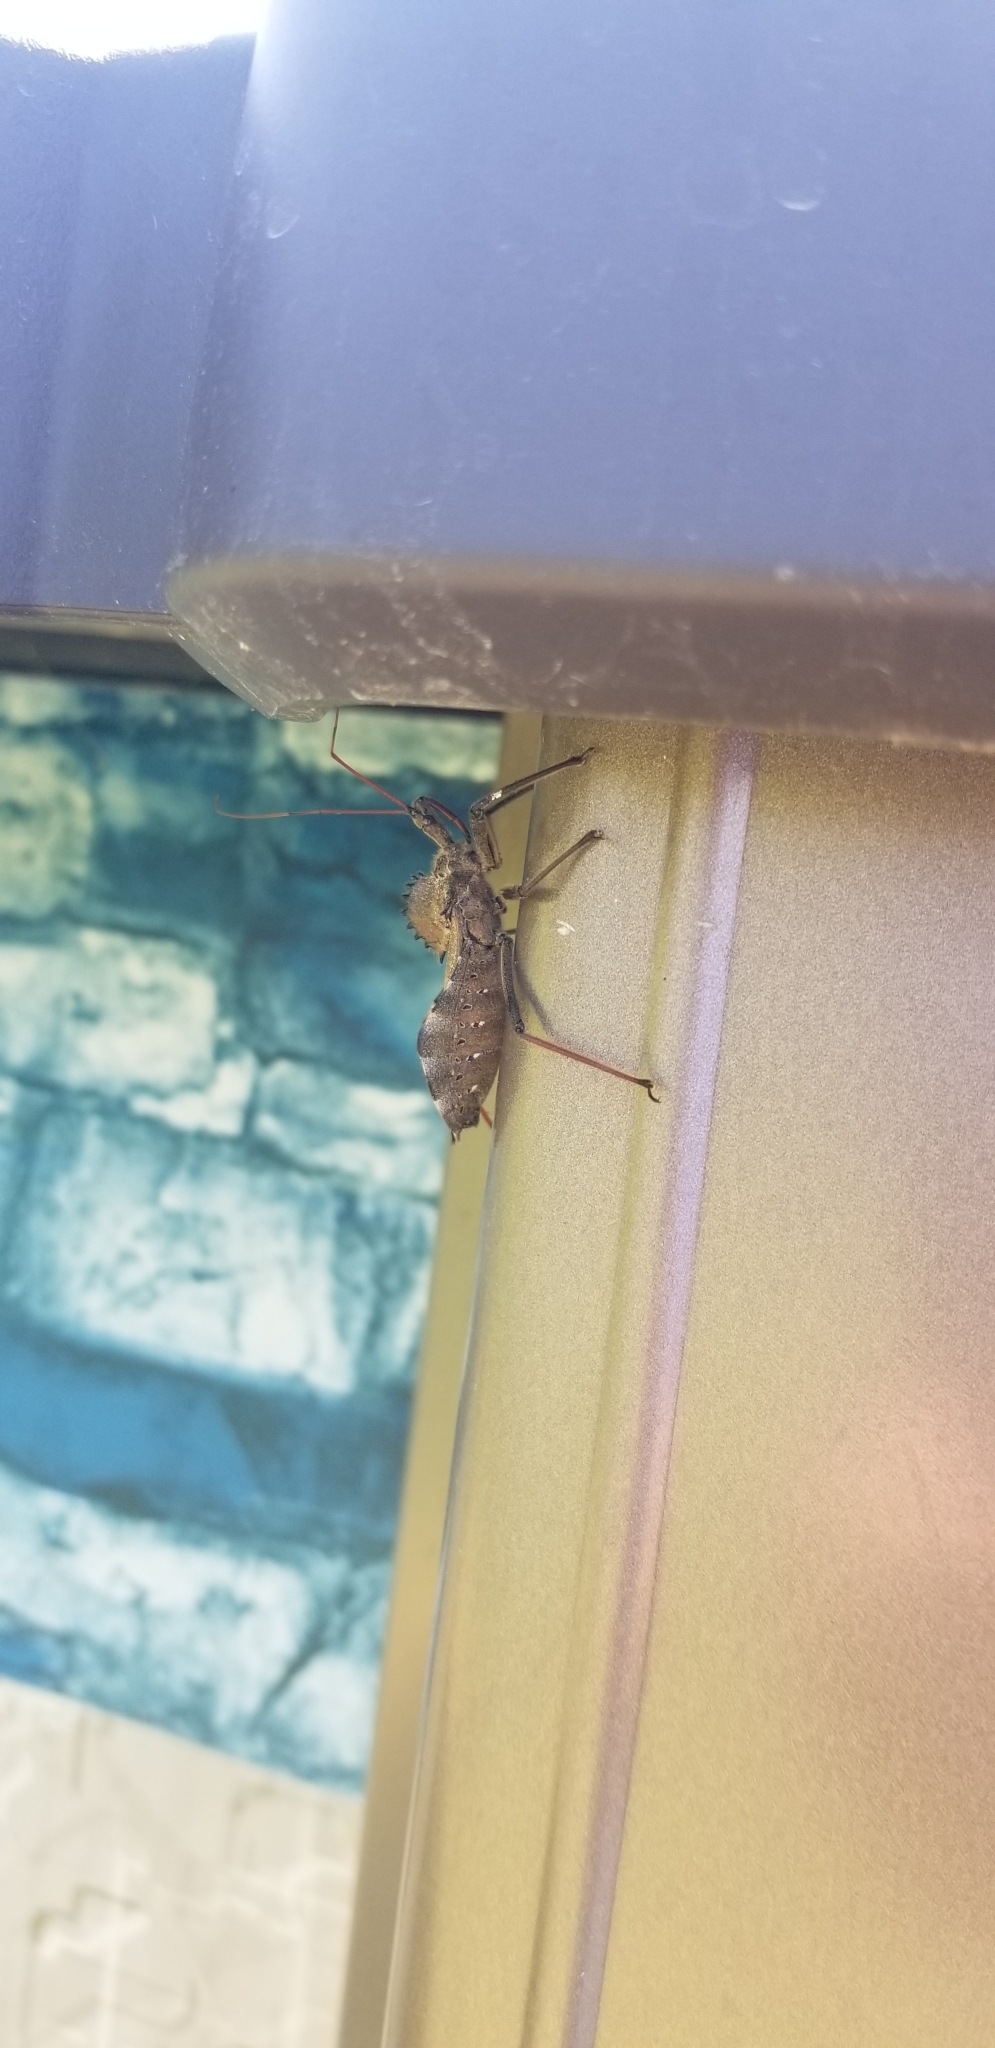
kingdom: Animalia
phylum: Arthropoda
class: Insecta
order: Hemiptera
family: Reduviidae
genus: Arilus
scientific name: Arilus cristatus
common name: North american wheel bug
